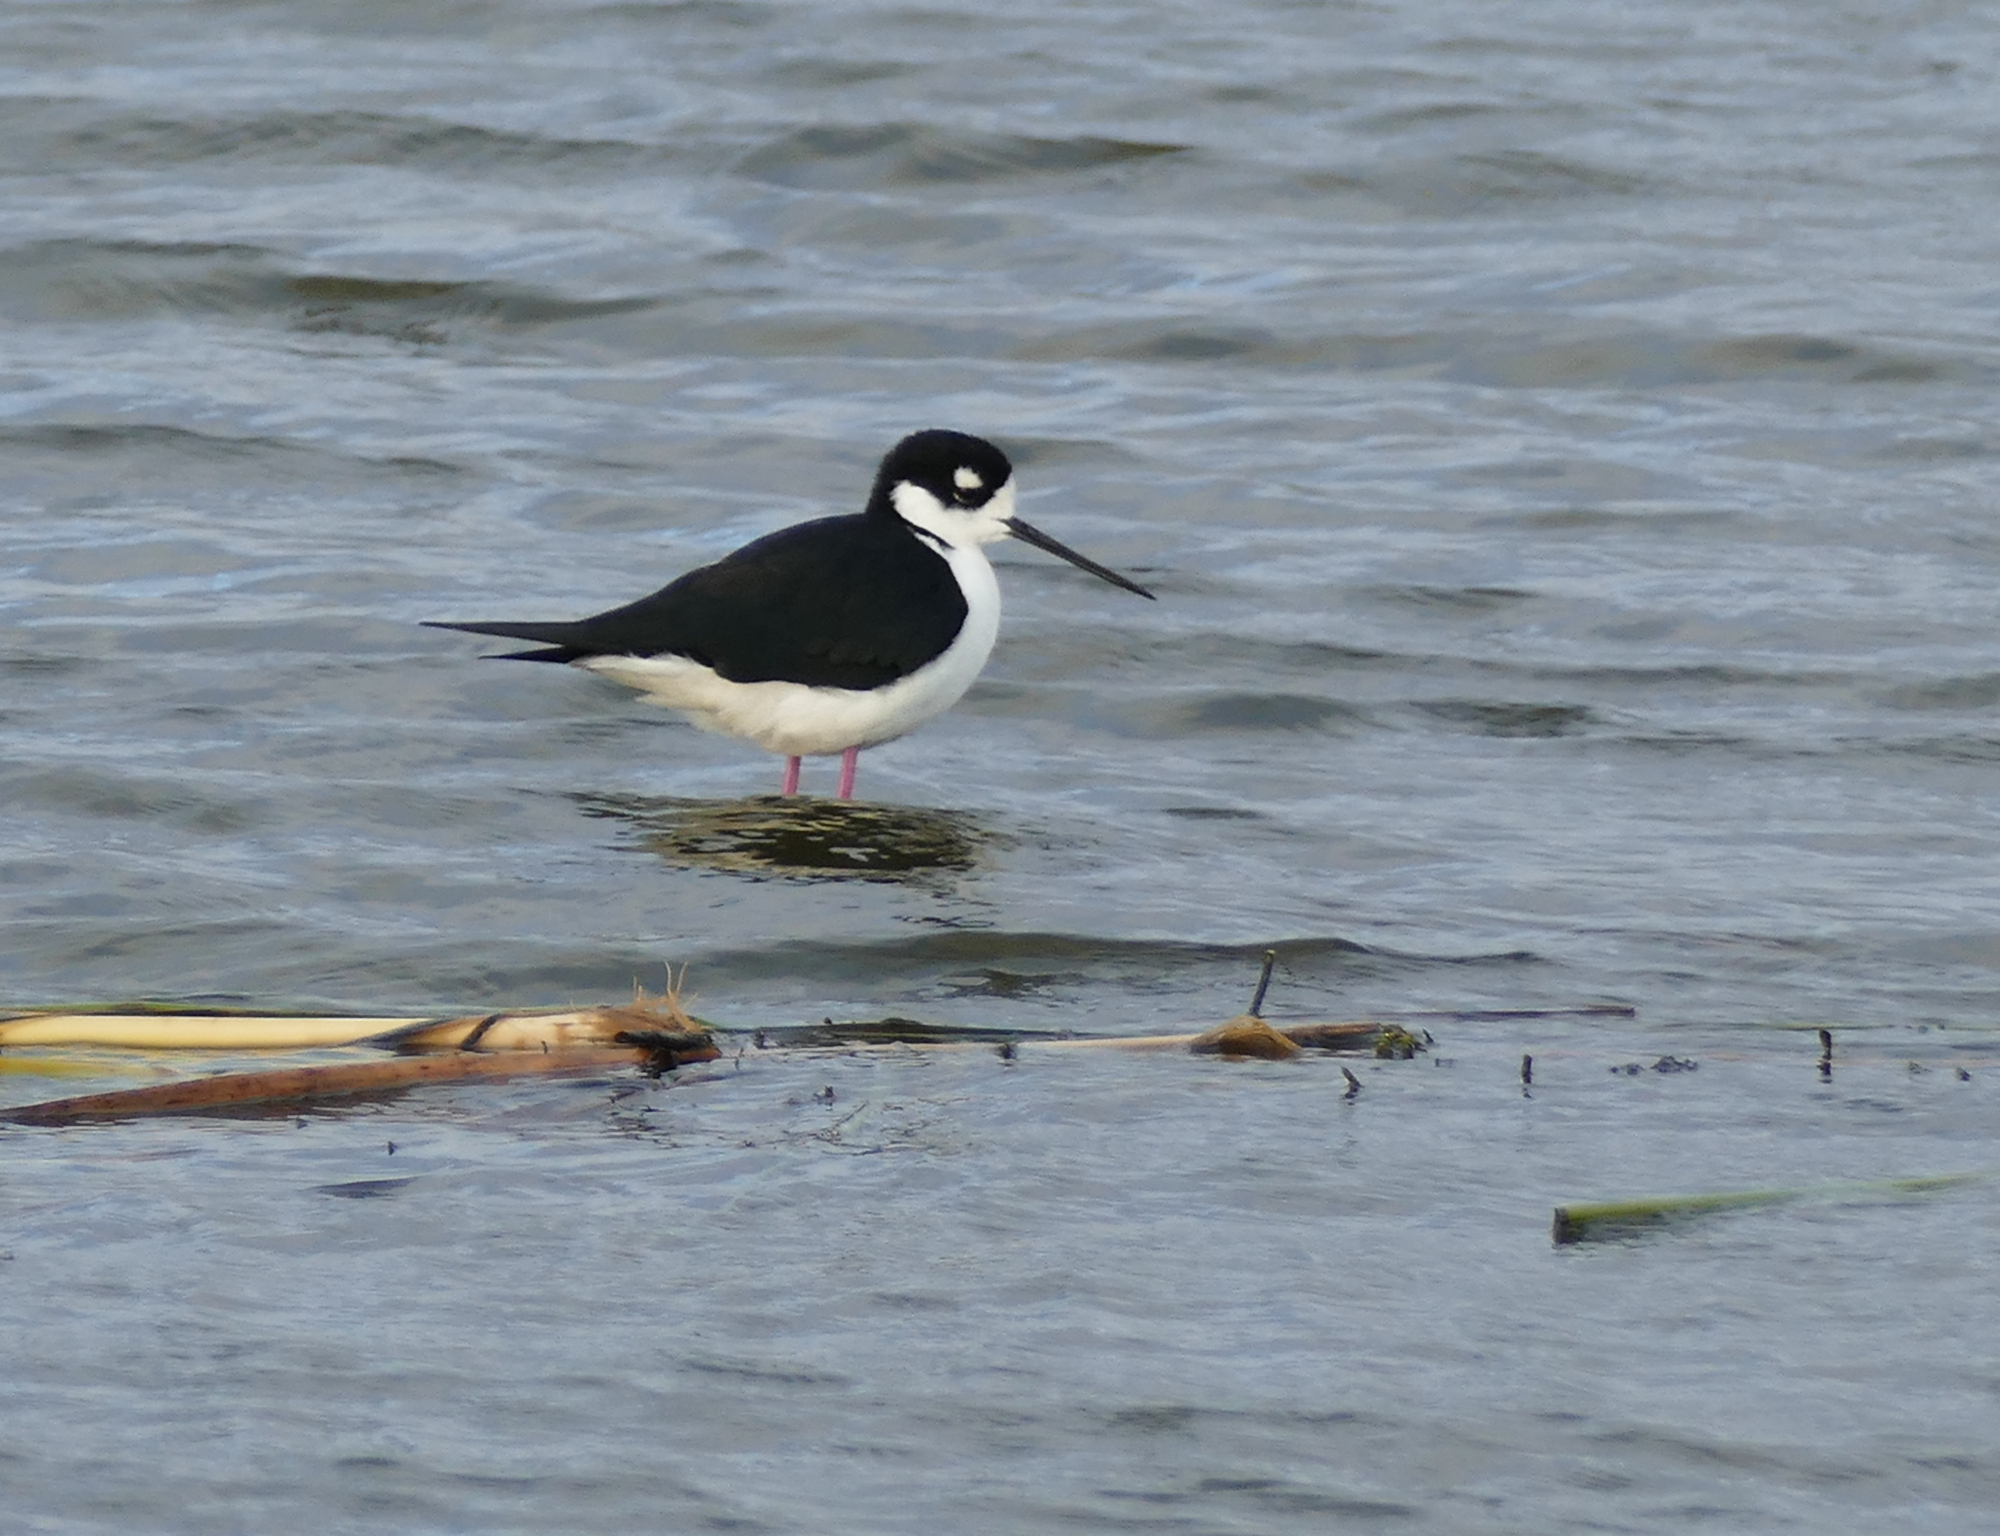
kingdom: Animalia
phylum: Chordata
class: Aves
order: Charadriiformes
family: Recurvirostridae
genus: Himantopus
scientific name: Himantopus mexicanus
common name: Black-necked stilt
